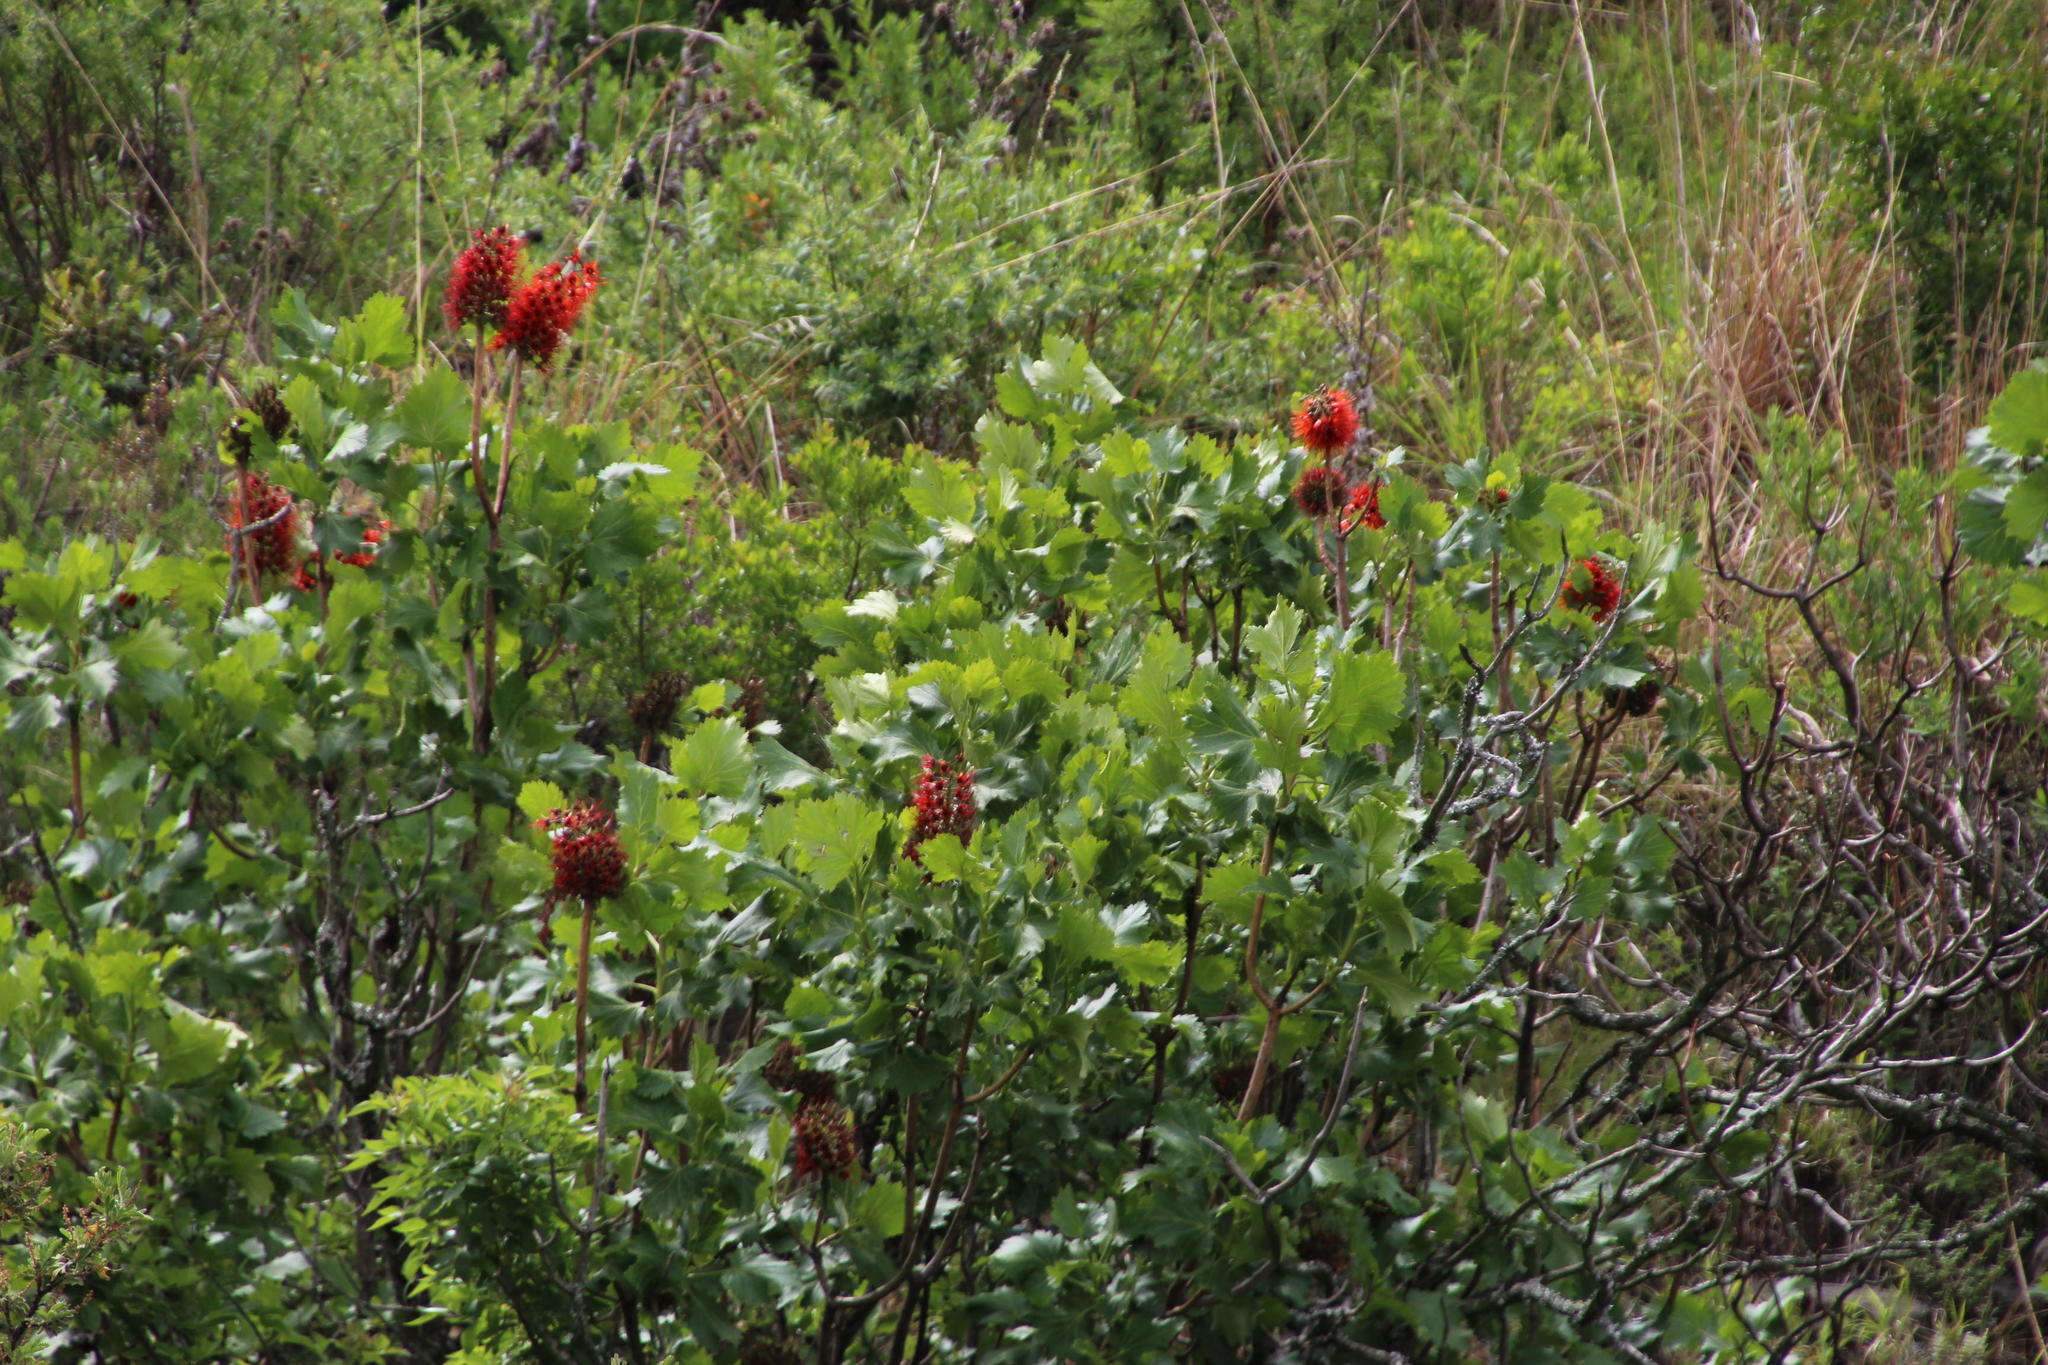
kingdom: Plantae
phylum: Tracheophyta
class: Magnoliopsida
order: Geraniales
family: Francoaceae
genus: Greyia
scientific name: Greyia sutherlandii
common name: Glossy bottlebrush
